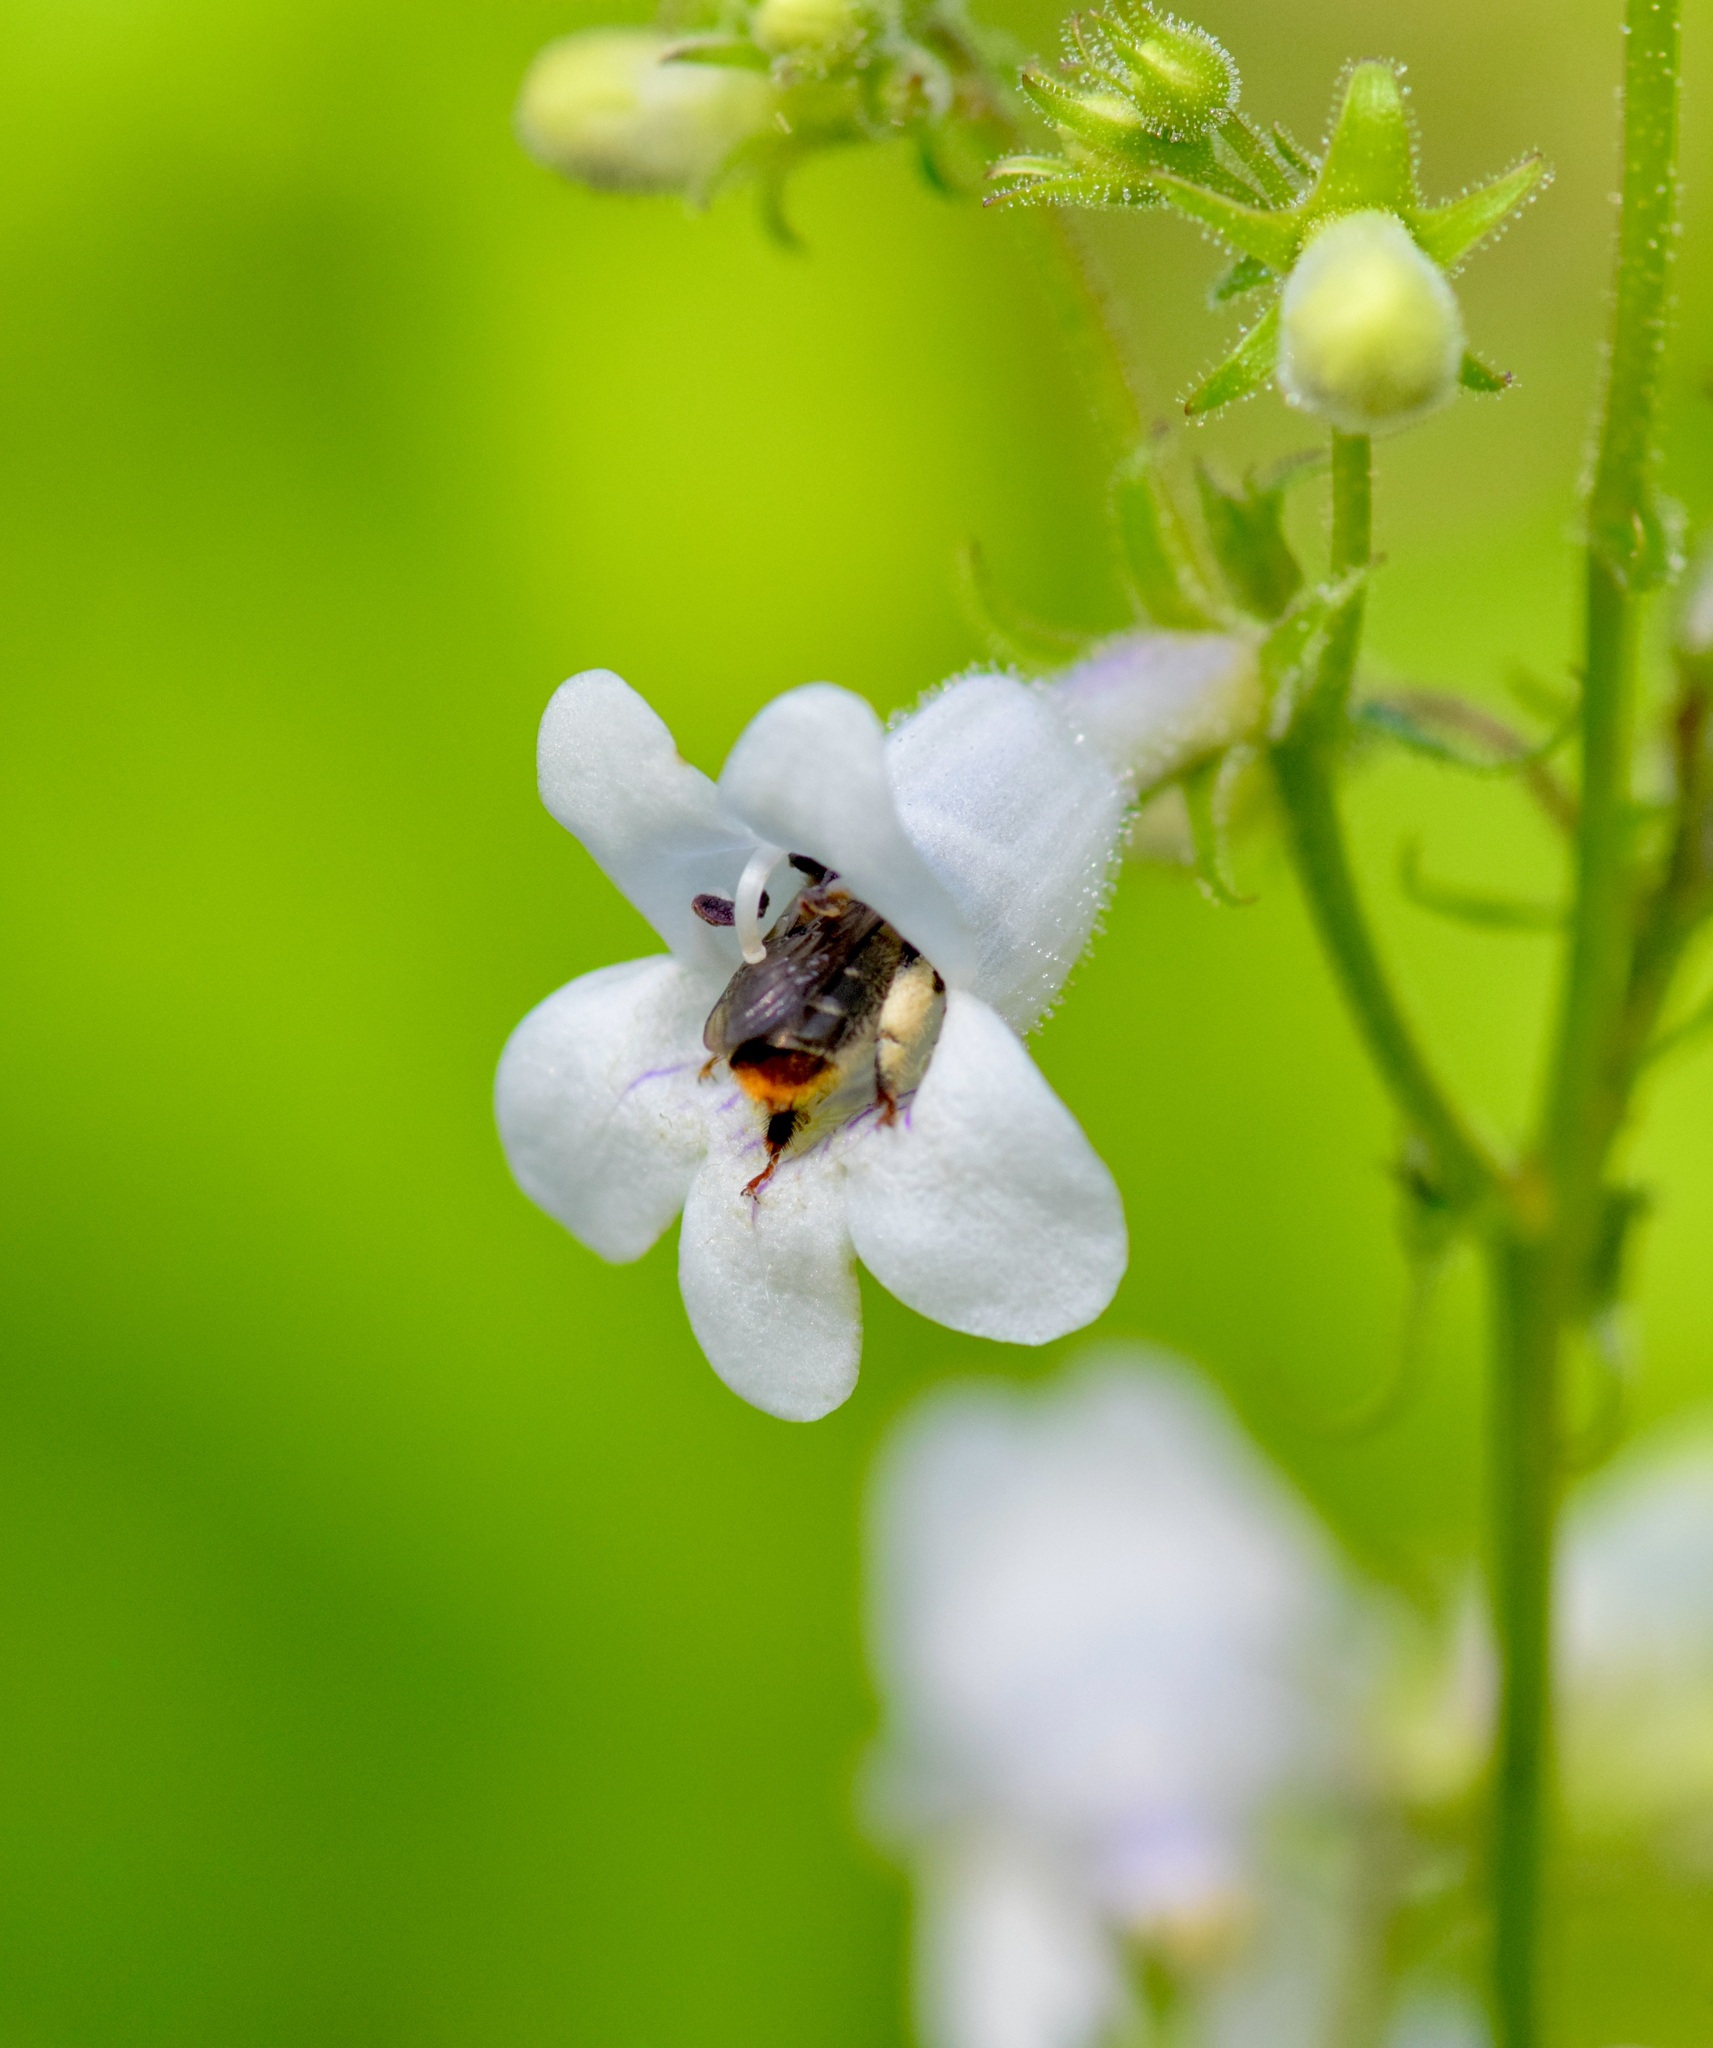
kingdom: Animalia
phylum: Arthropoda
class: Insecta
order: Hymenoptera
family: Apidae
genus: Anthophora
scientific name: Anthophora terminalis
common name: Orange-tipped wood-digger bee
